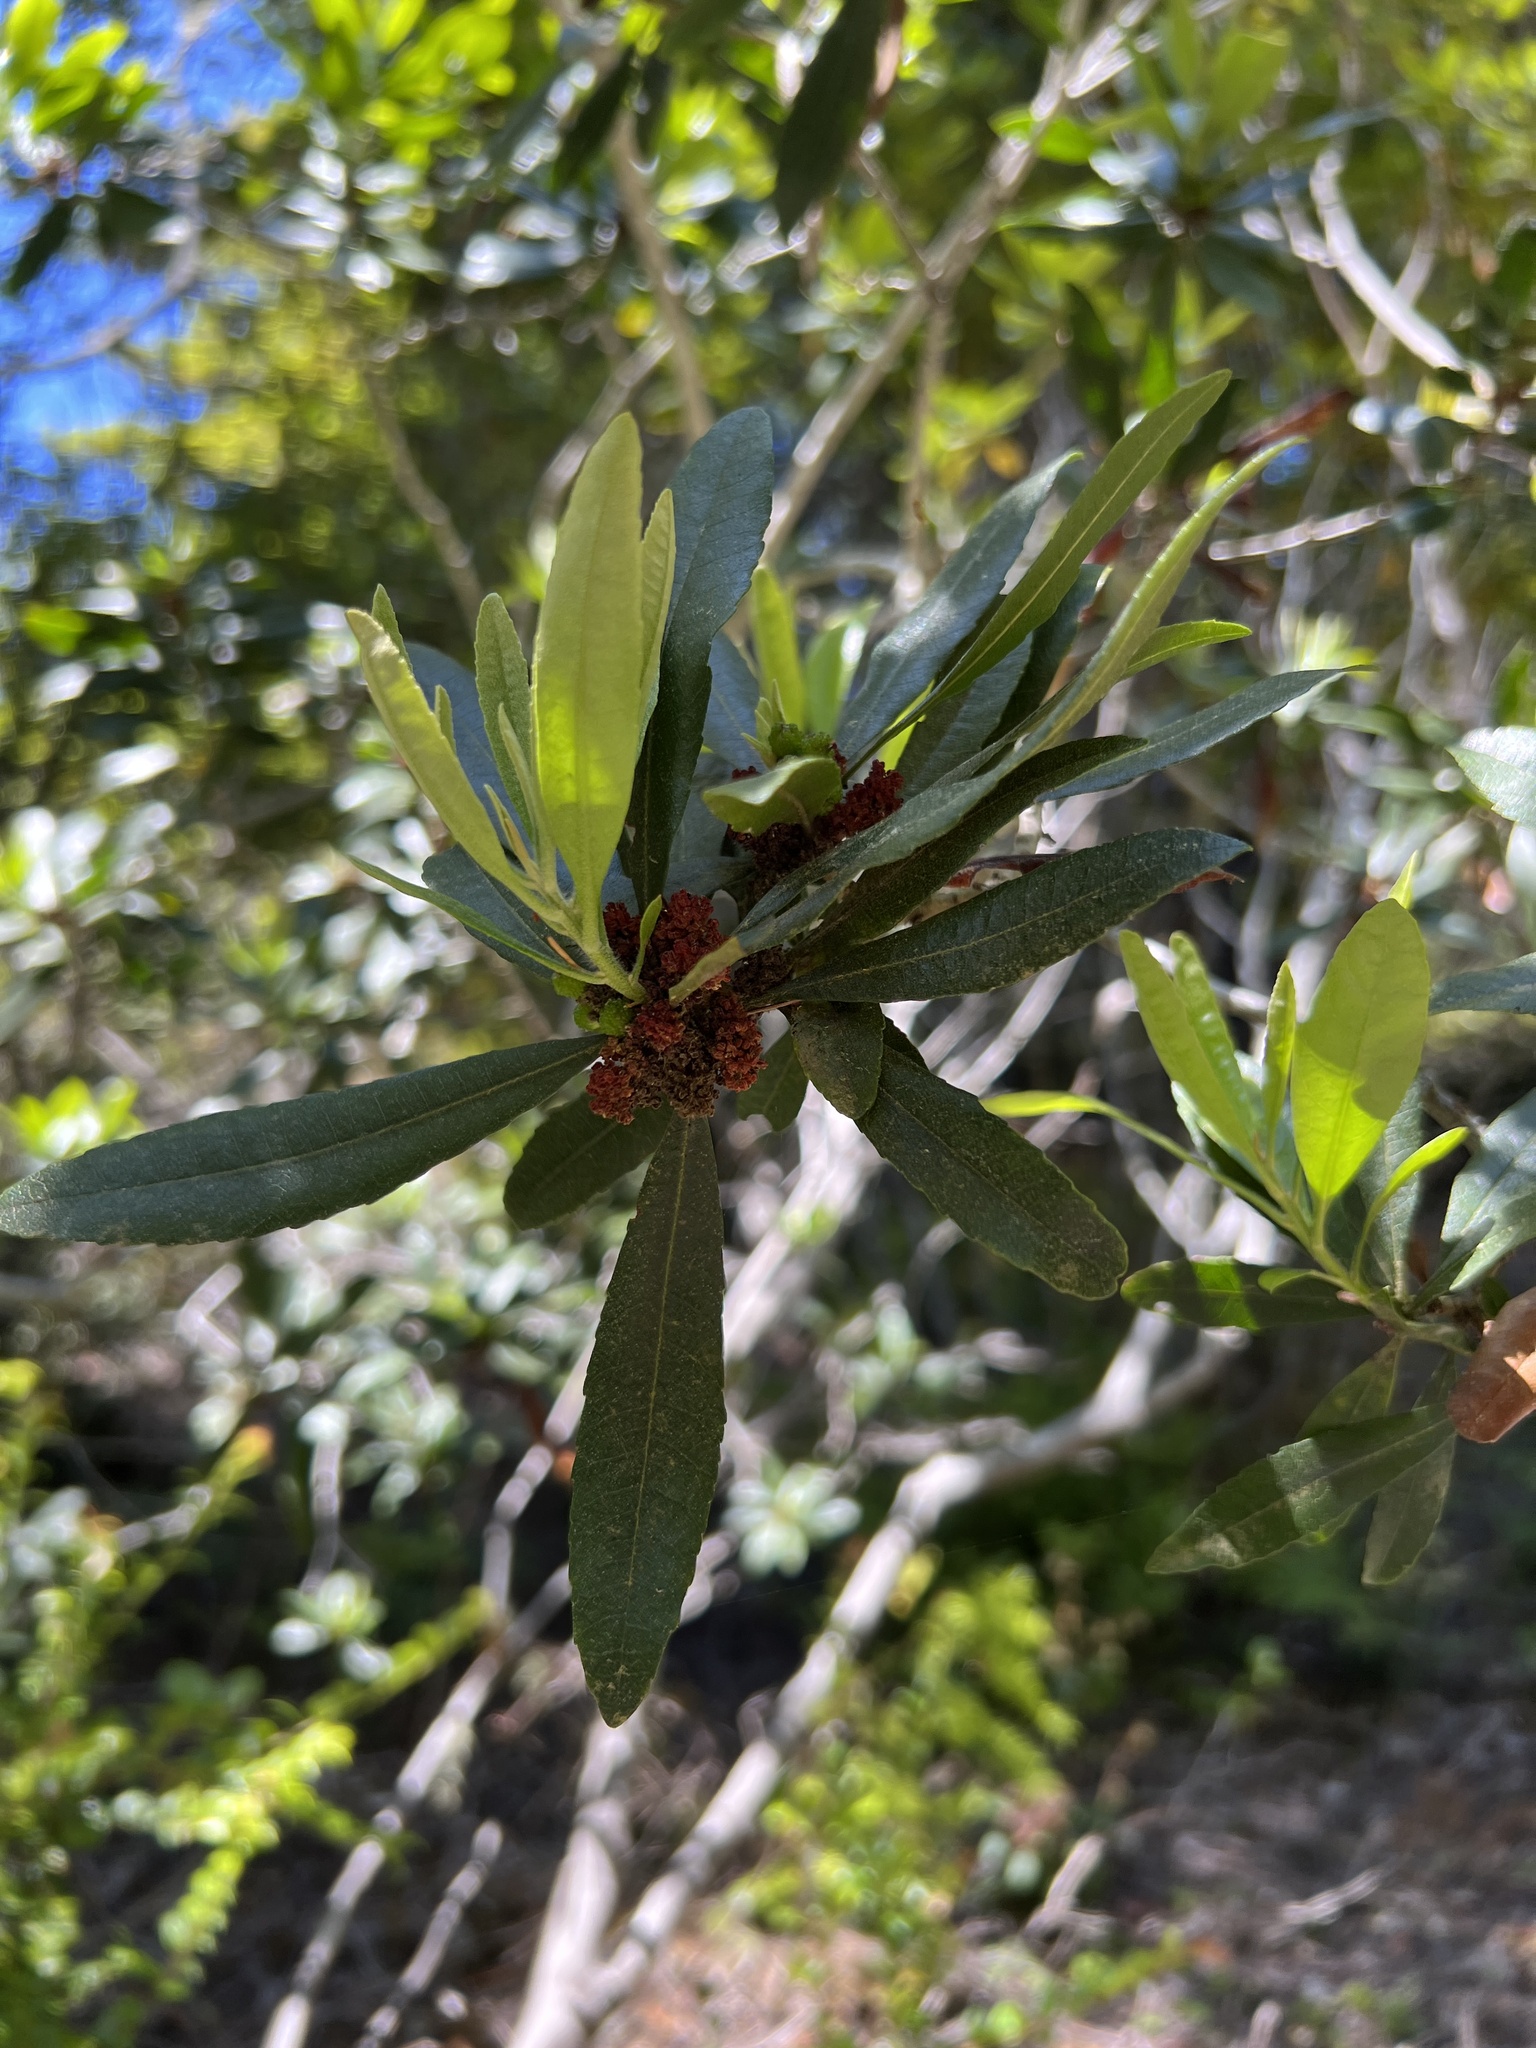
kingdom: Plantae
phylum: Tracheophyta
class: Magnoliopsida
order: Fagales
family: Myricaceae
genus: Morella
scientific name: Morella californica
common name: California wax-myrtle
